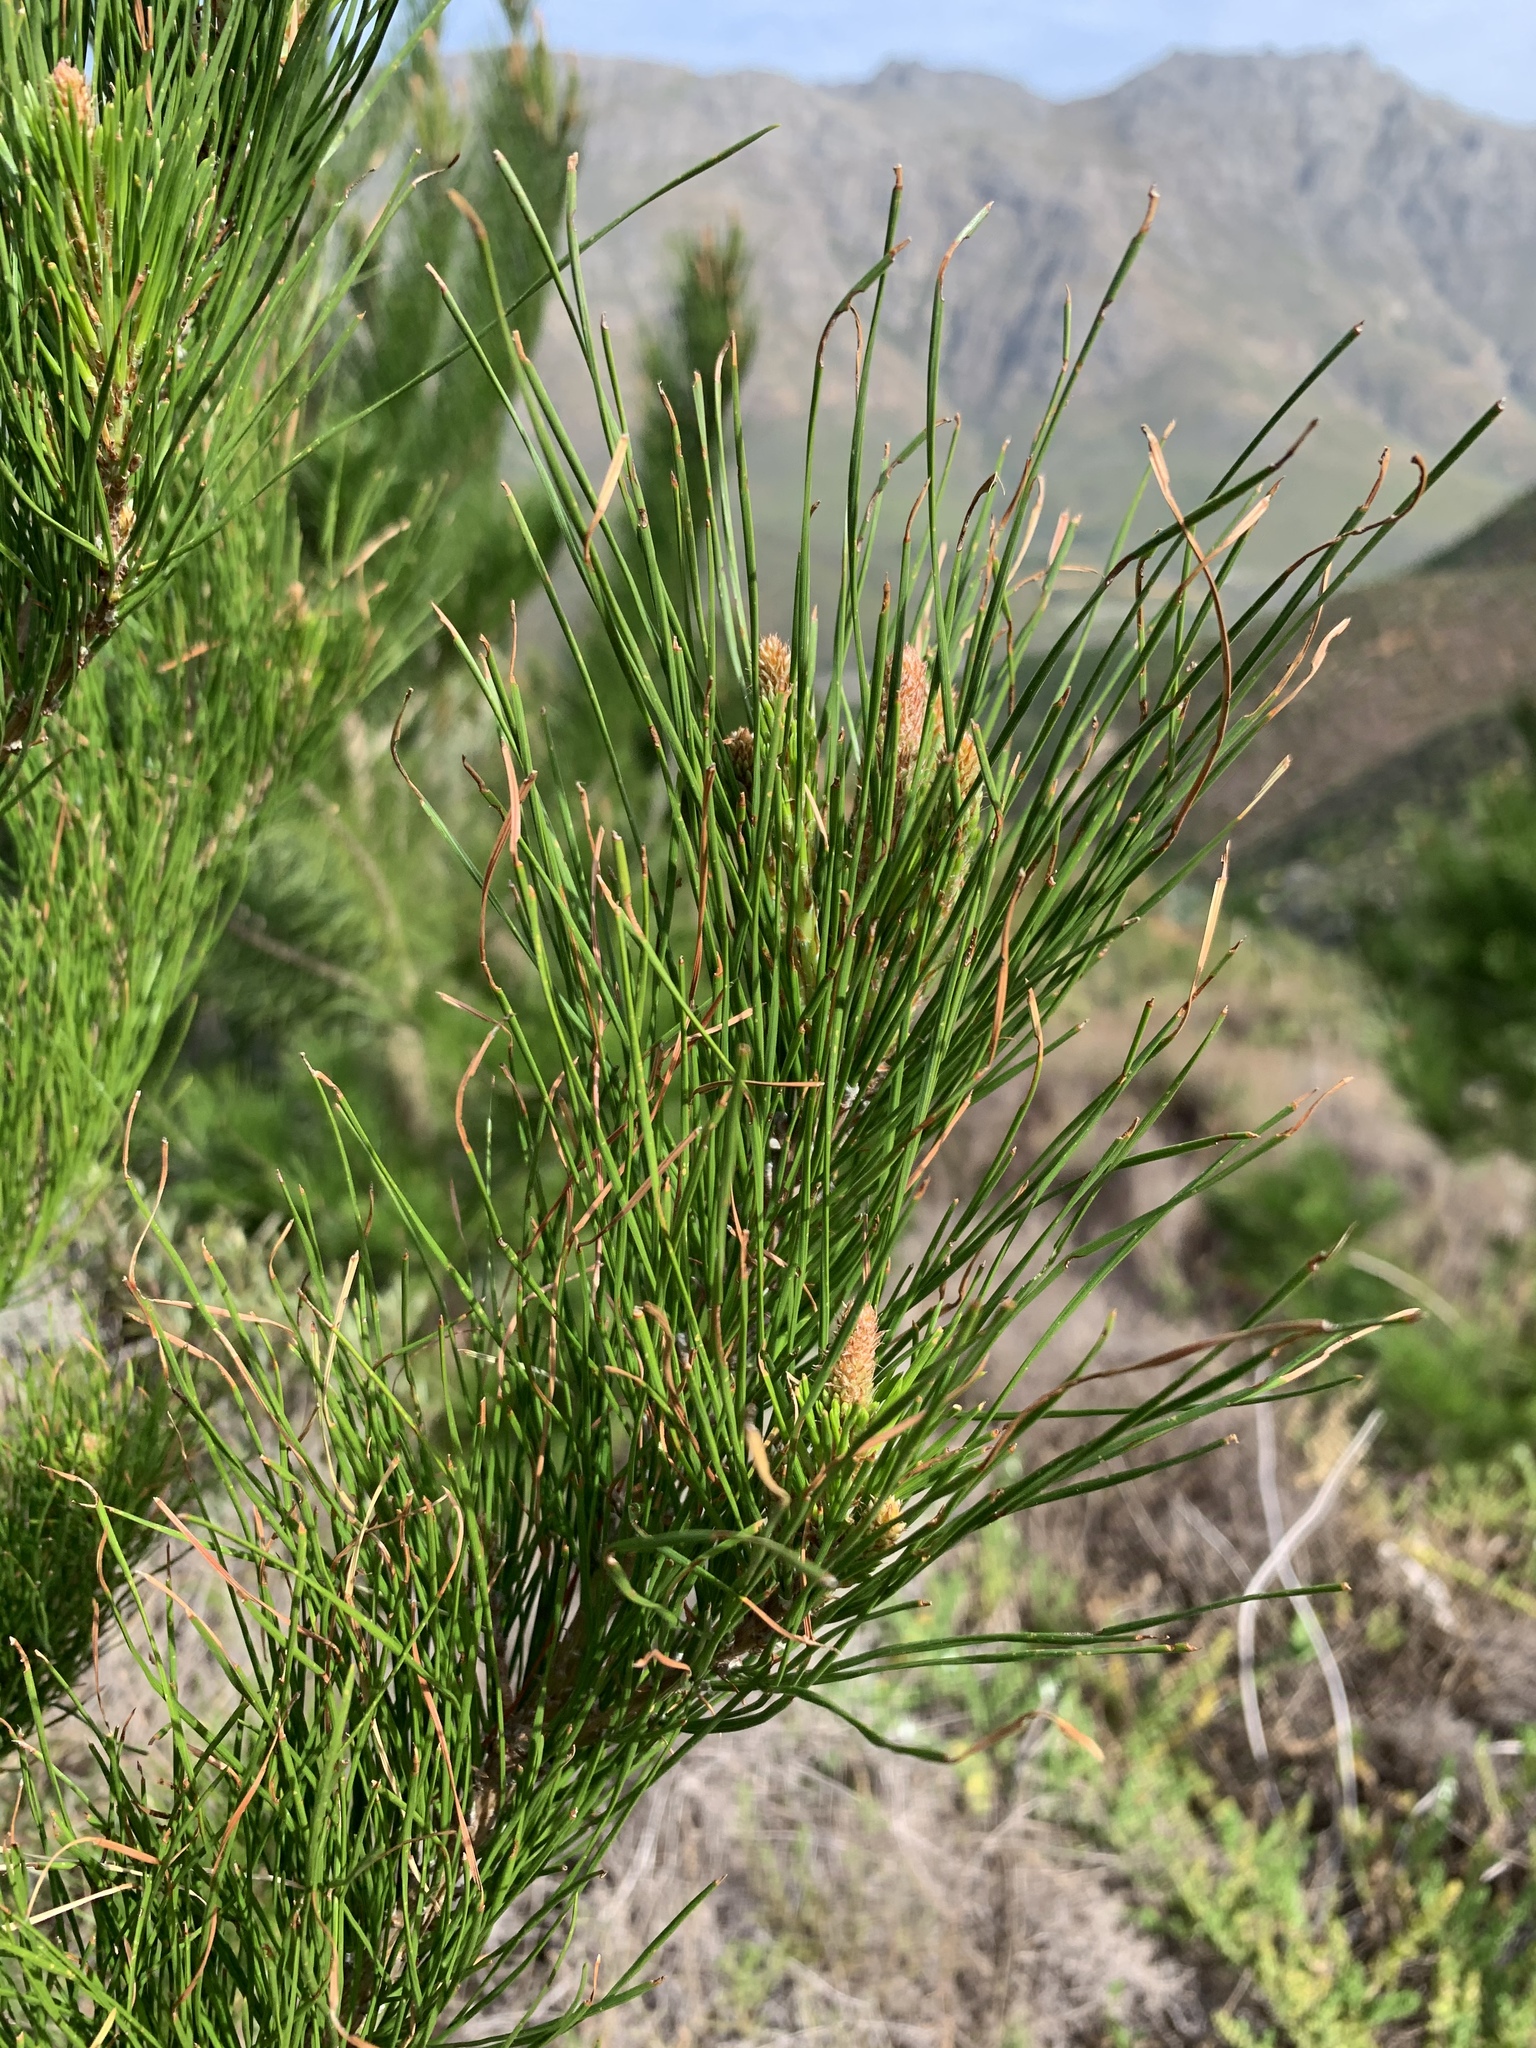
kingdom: Plantae
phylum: Tracheophyta
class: Pinopsida
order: Pinales
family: Pinaceae
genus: Pinus
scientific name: Pinus radiata
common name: Monterey pine
